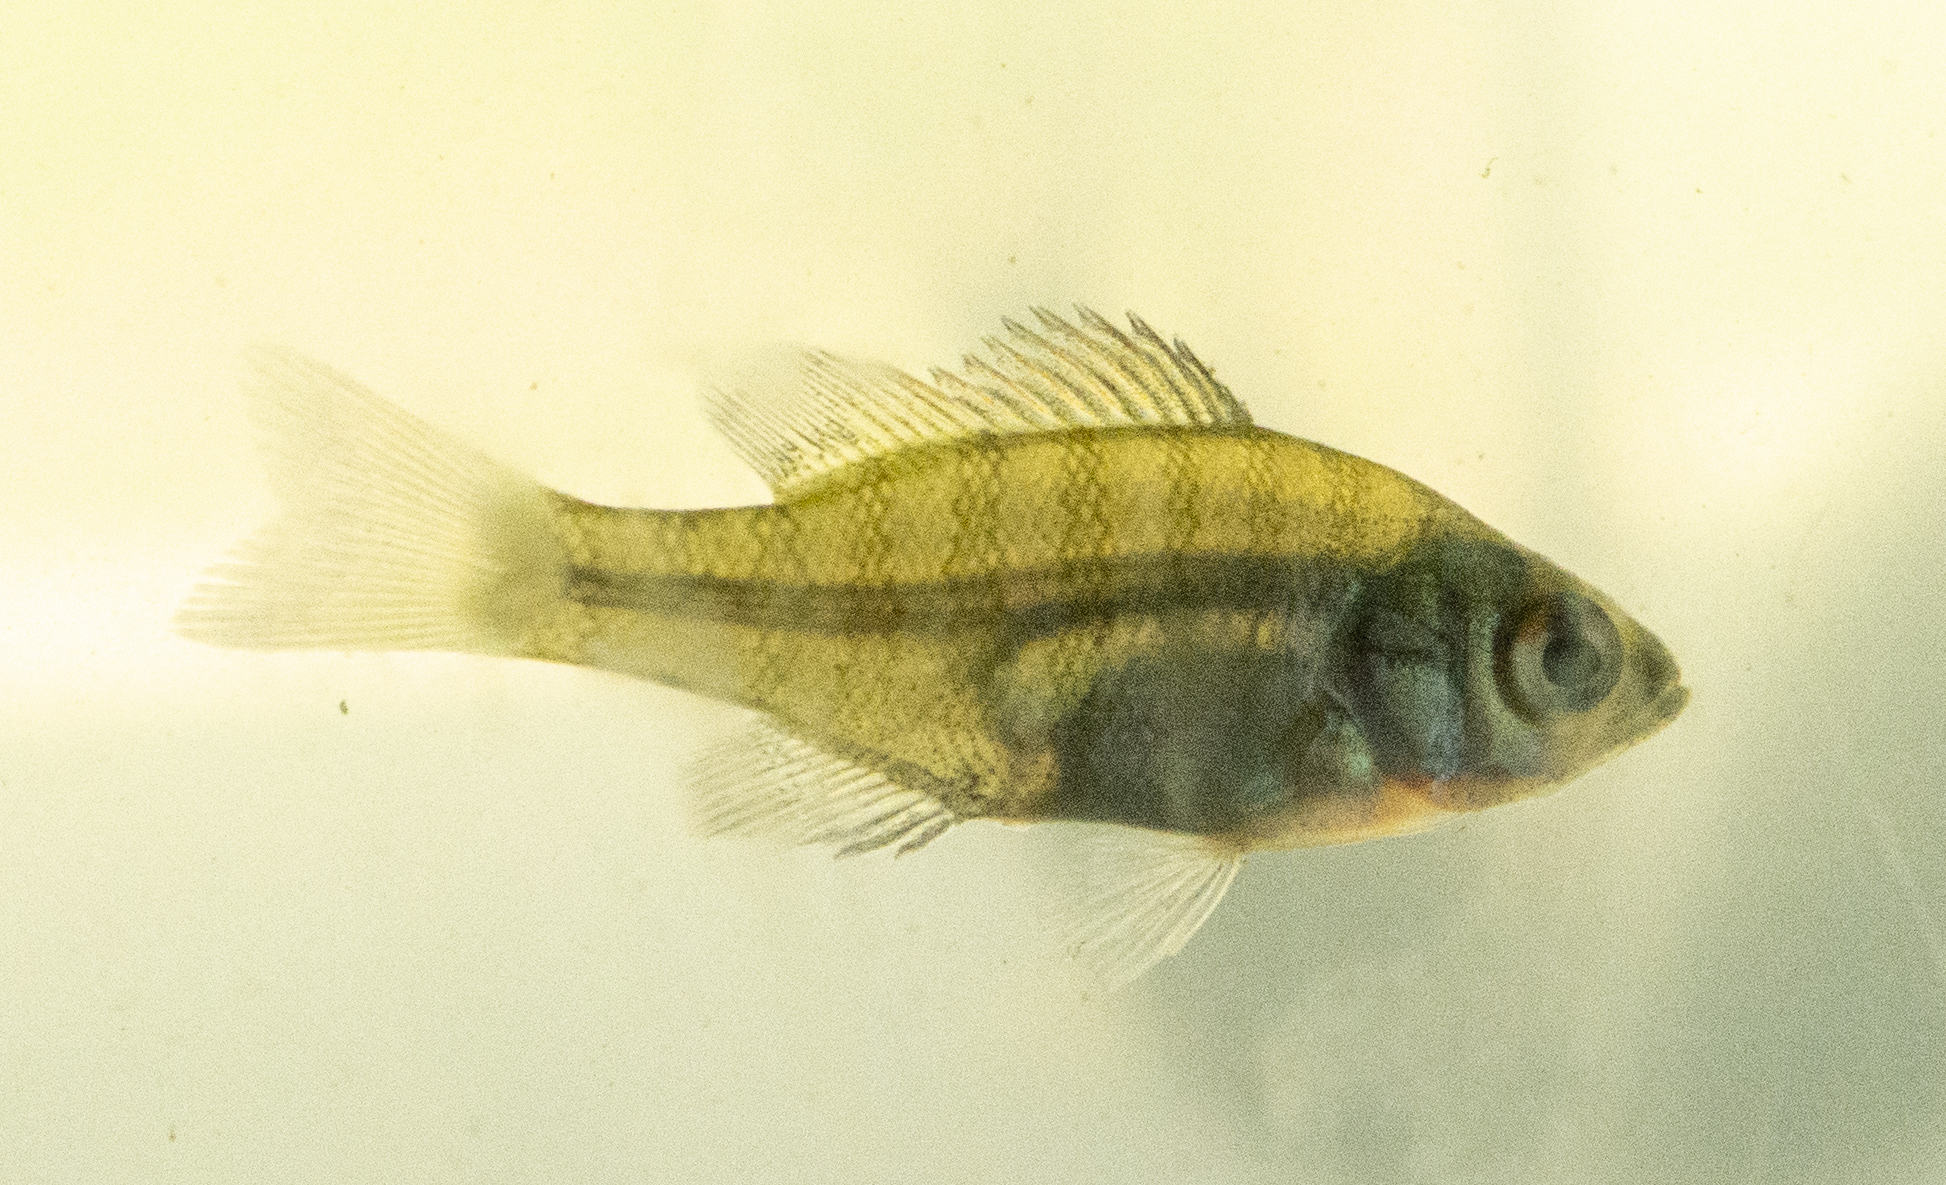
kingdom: Animalia
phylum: Chordata
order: Perciformes
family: Centrarchidae
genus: Lepomis
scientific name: Lepomis macrochirus
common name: Bluegill
